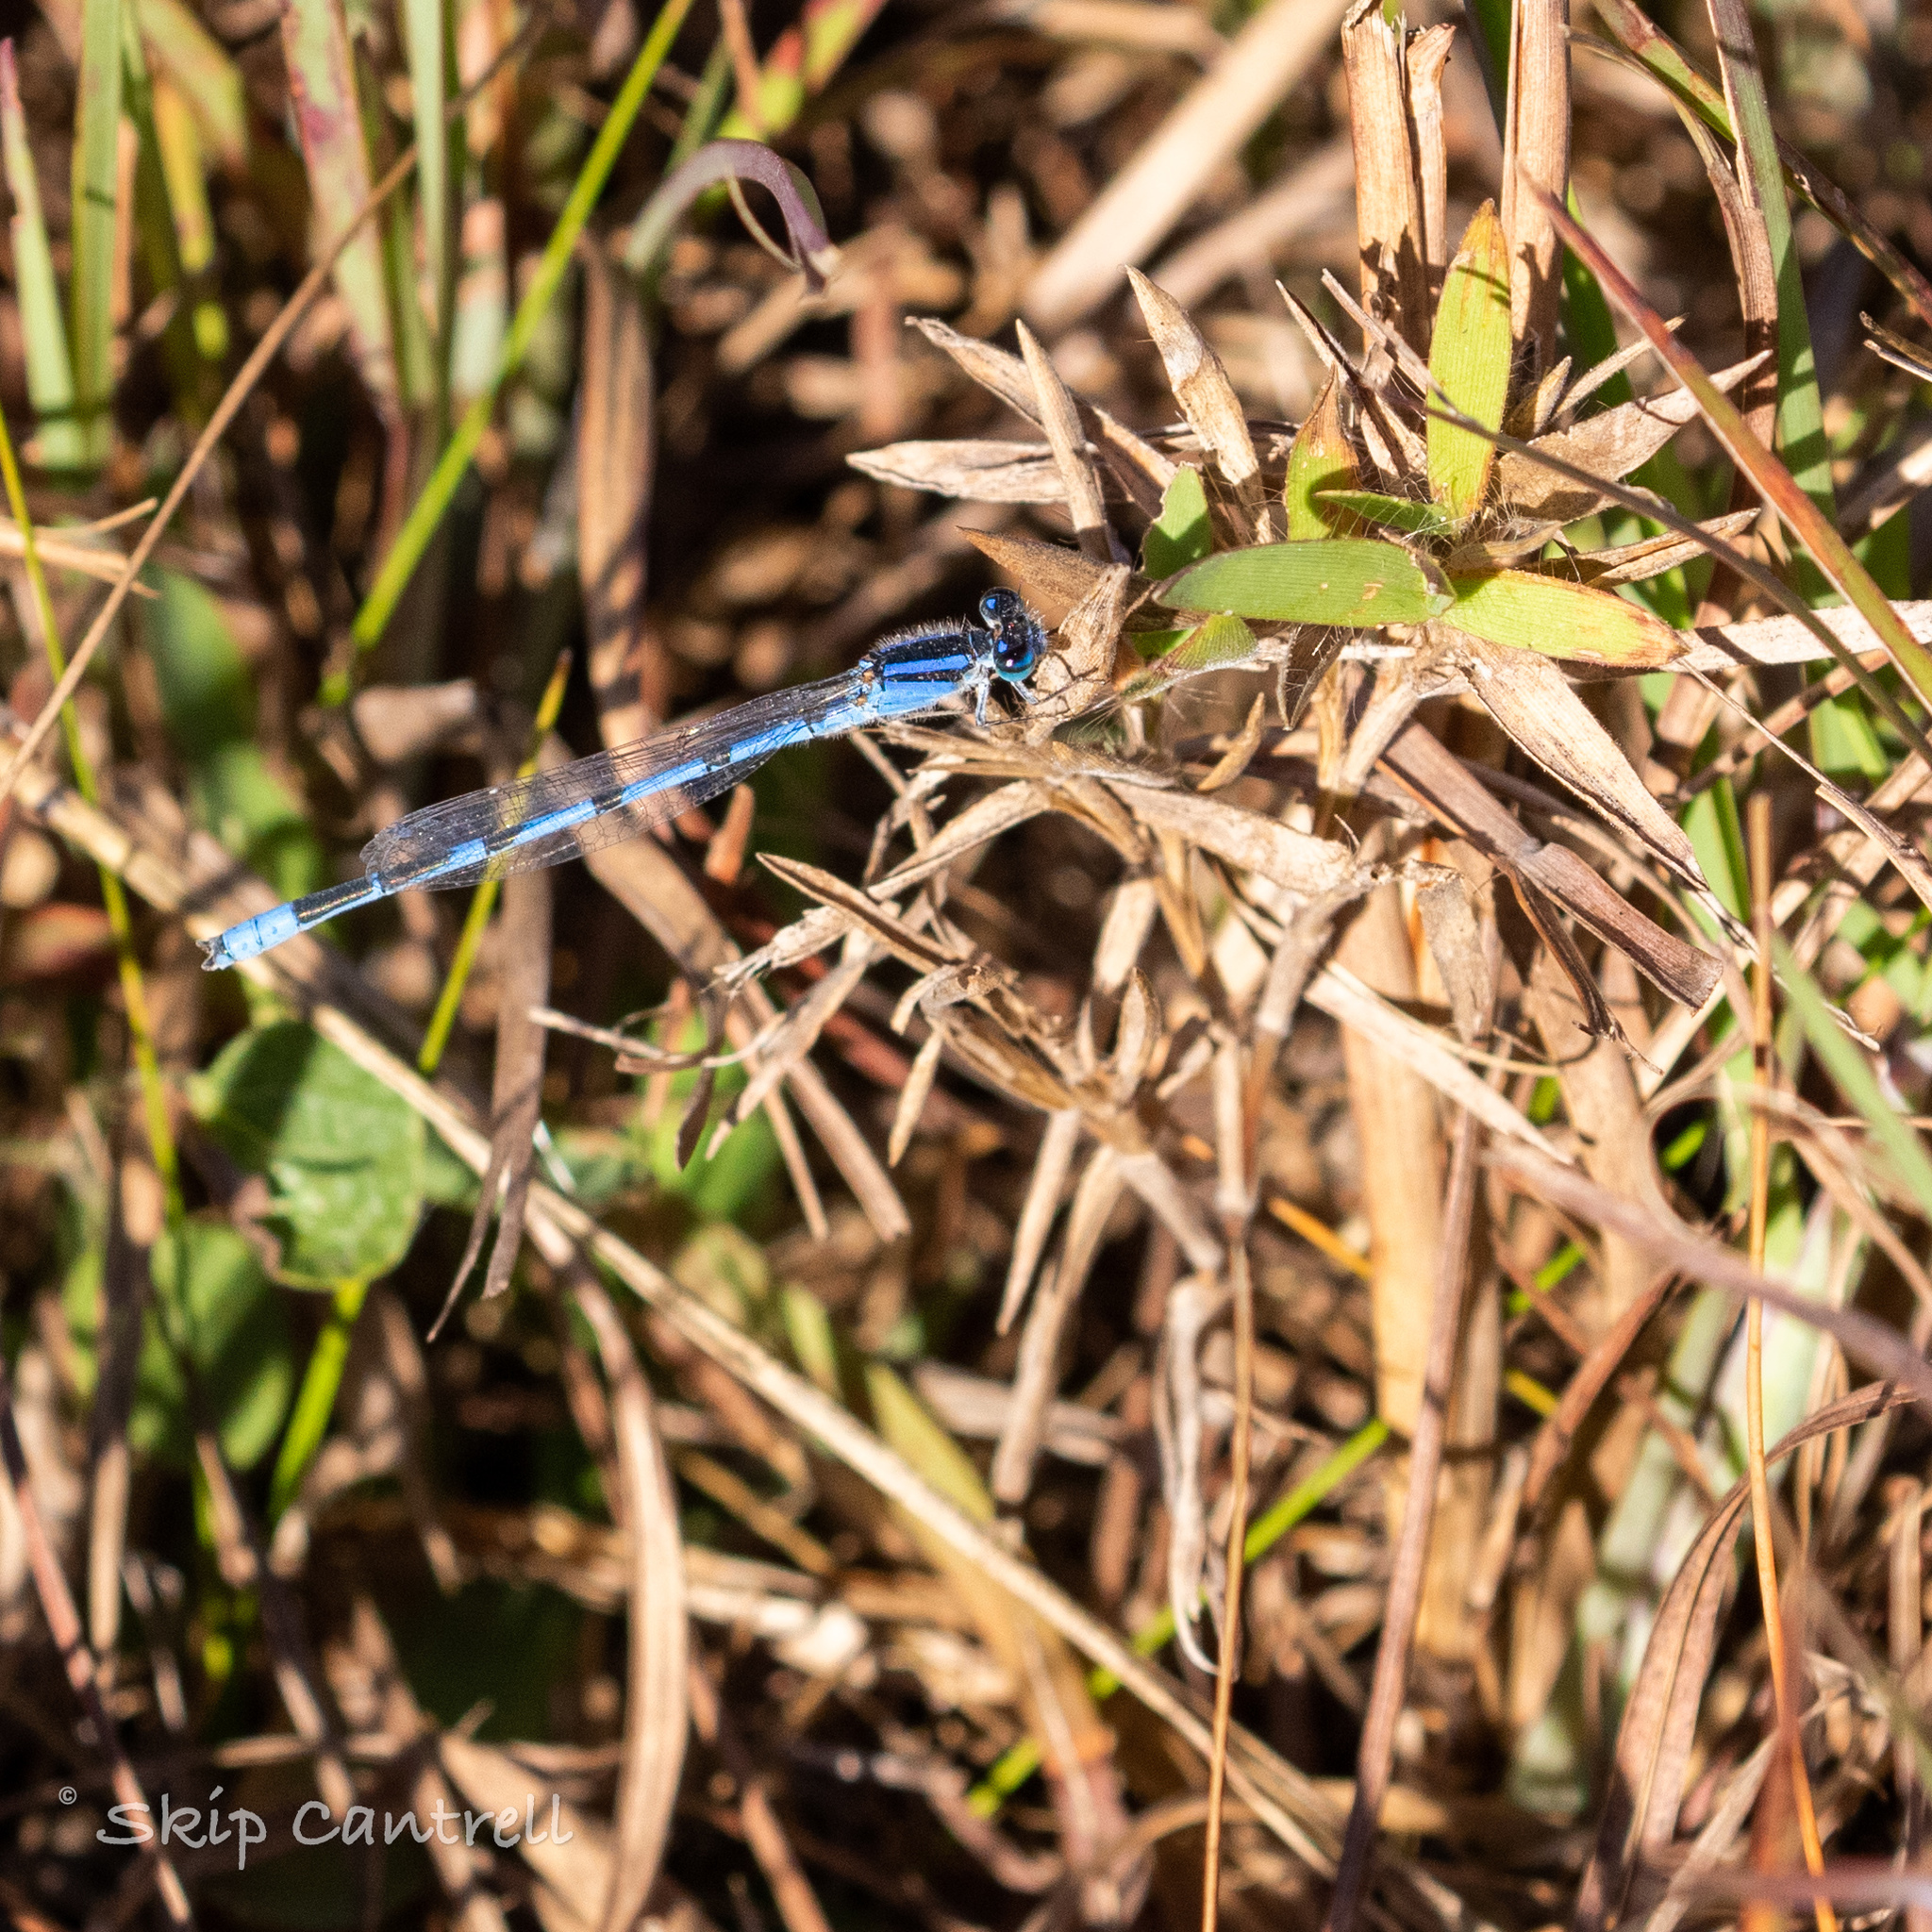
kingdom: Animalia
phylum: Arthropoda
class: Insecta
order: Odonata
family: Coenagrionidae
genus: Enallagma
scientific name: Enallagma civile
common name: Damselfly
